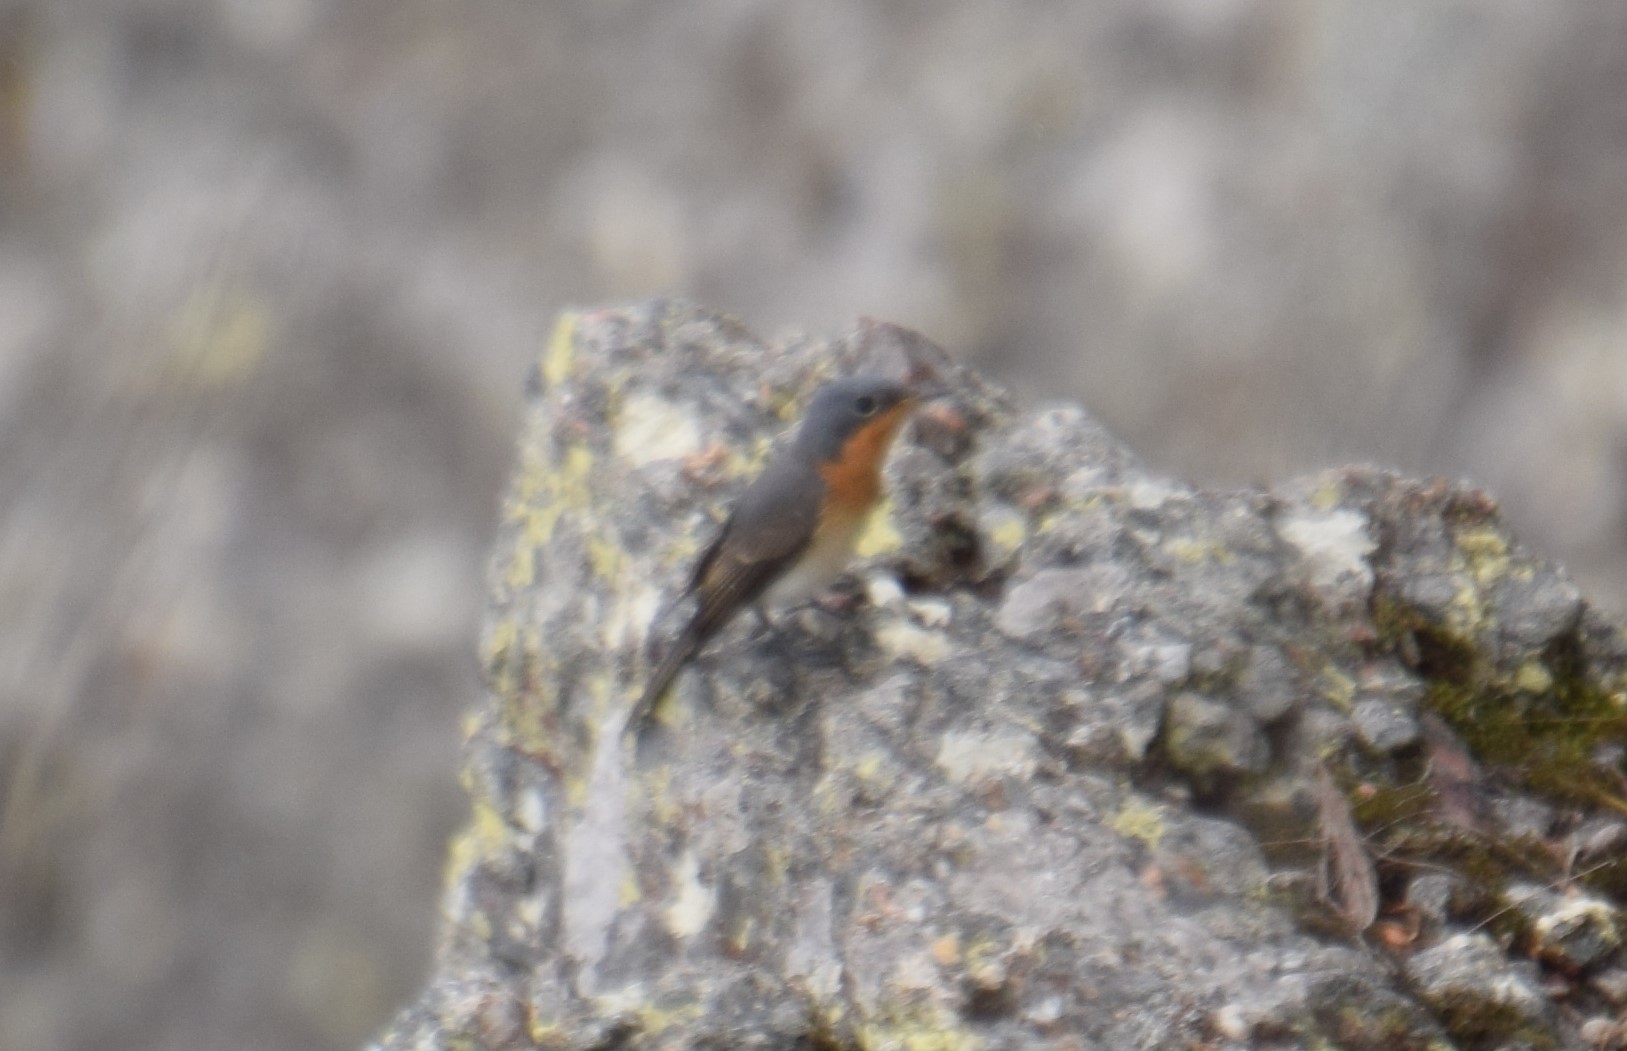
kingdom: Animalia
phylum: Chordata
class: Aves
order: Passeriformes
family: Monarchidae
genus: Myiagra
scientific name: Myiagra rubecula
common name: Leaden flycatcher
